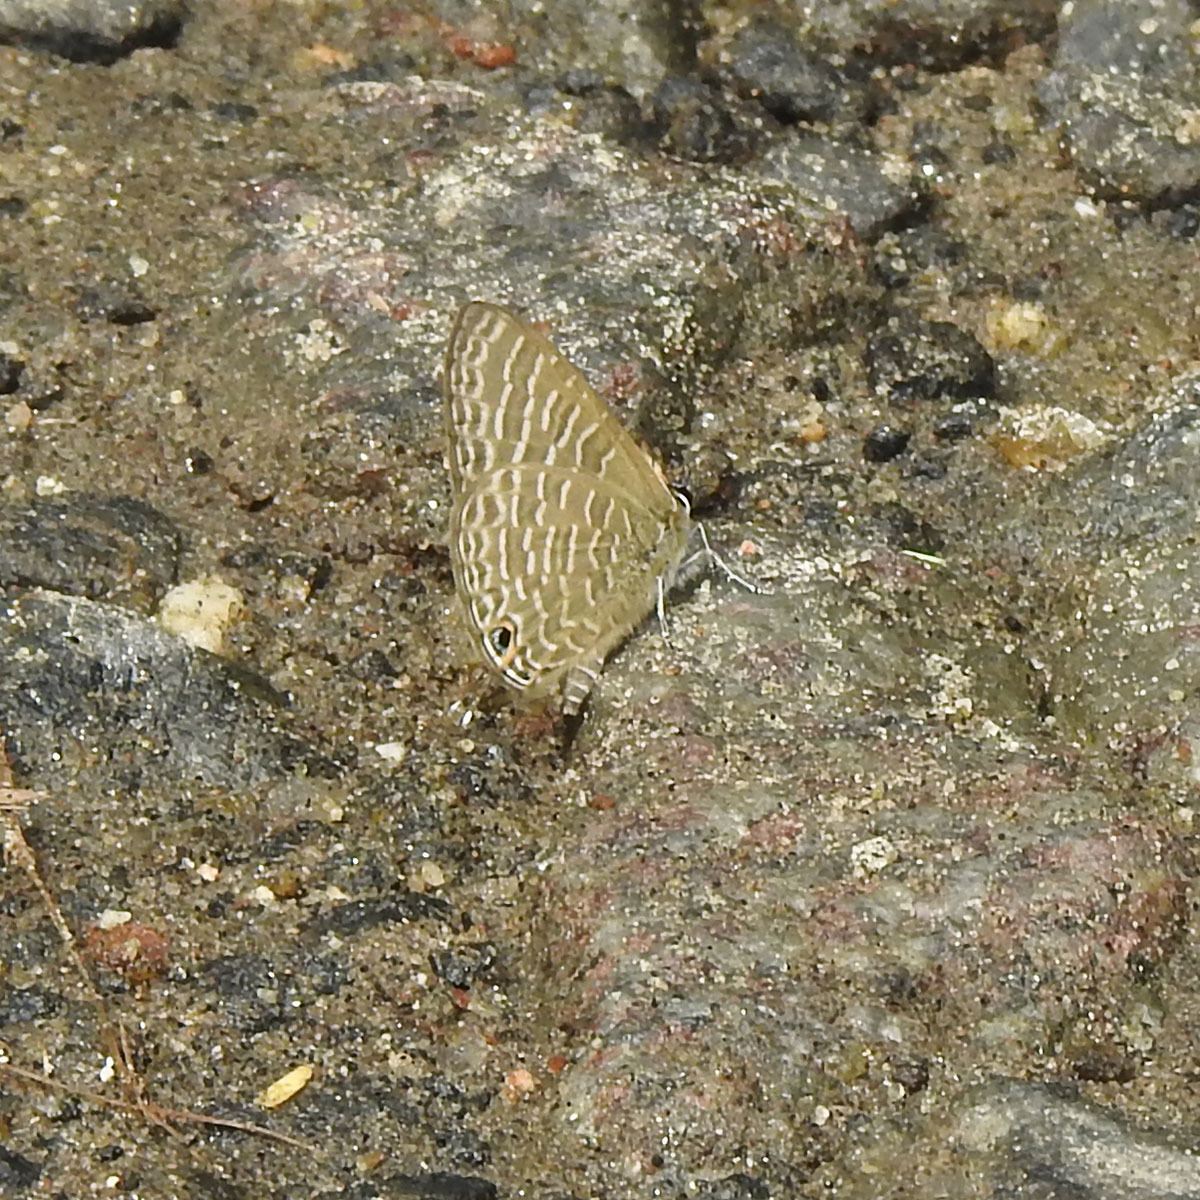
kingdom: Animalia
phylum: Arthropoda
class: Insecta
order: Lepidoptera
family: Lycaenidae
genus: Nacaduba
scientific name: Nacaduba kurava
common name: Transparent 6-line blue
